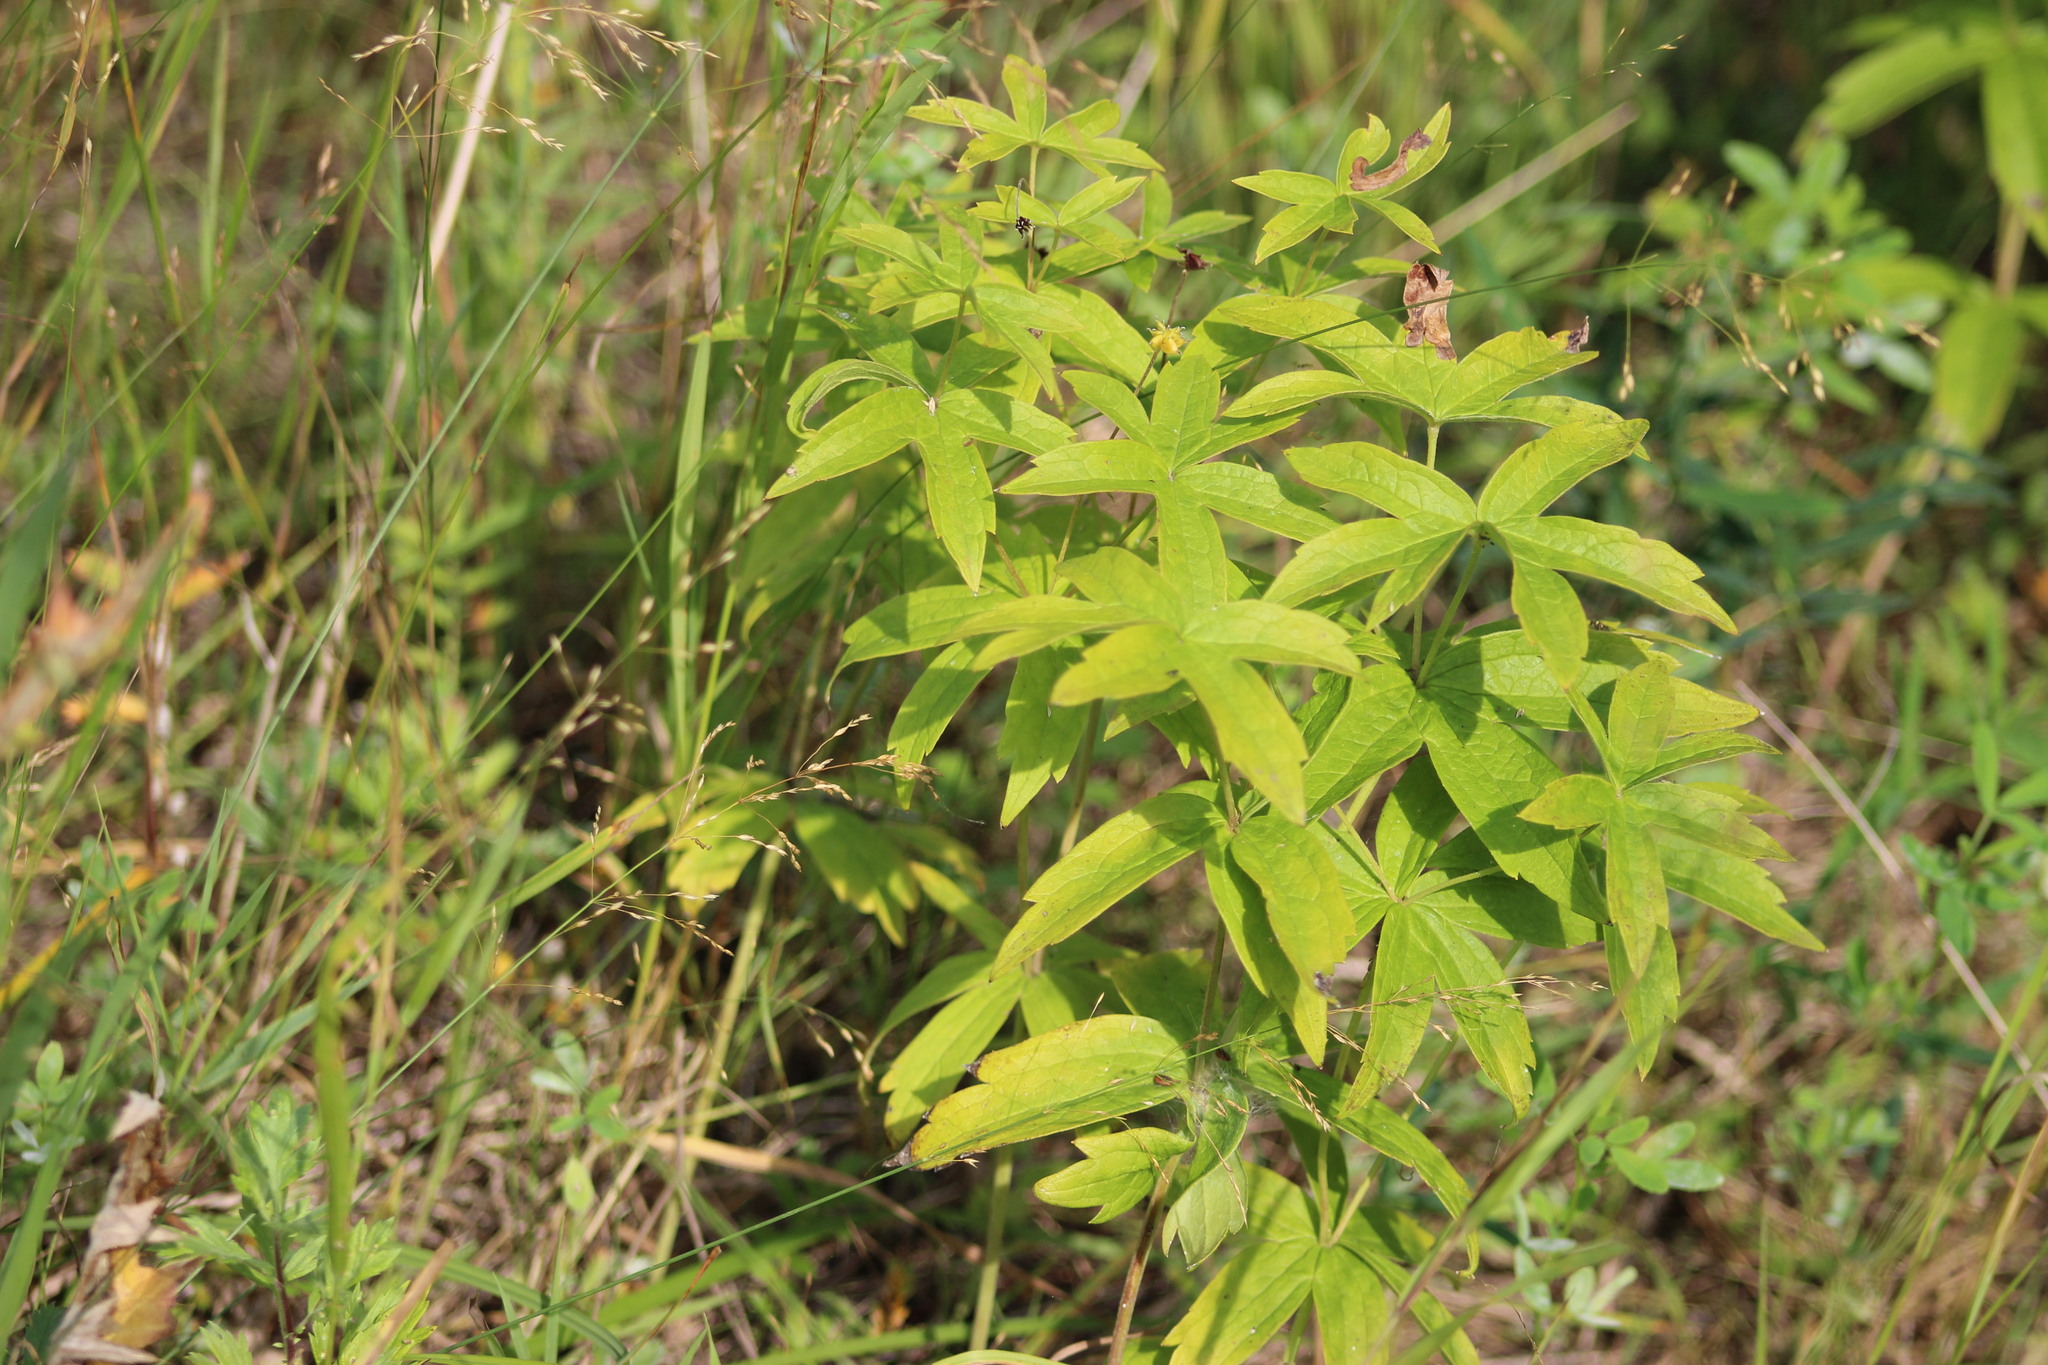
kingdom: Plantae
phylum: Tracheophyta
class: Magnoliopsida
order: Ranunculales
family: Ranunculaceae
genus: Anemonastrum
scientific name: Anemonastrum dichotomum
